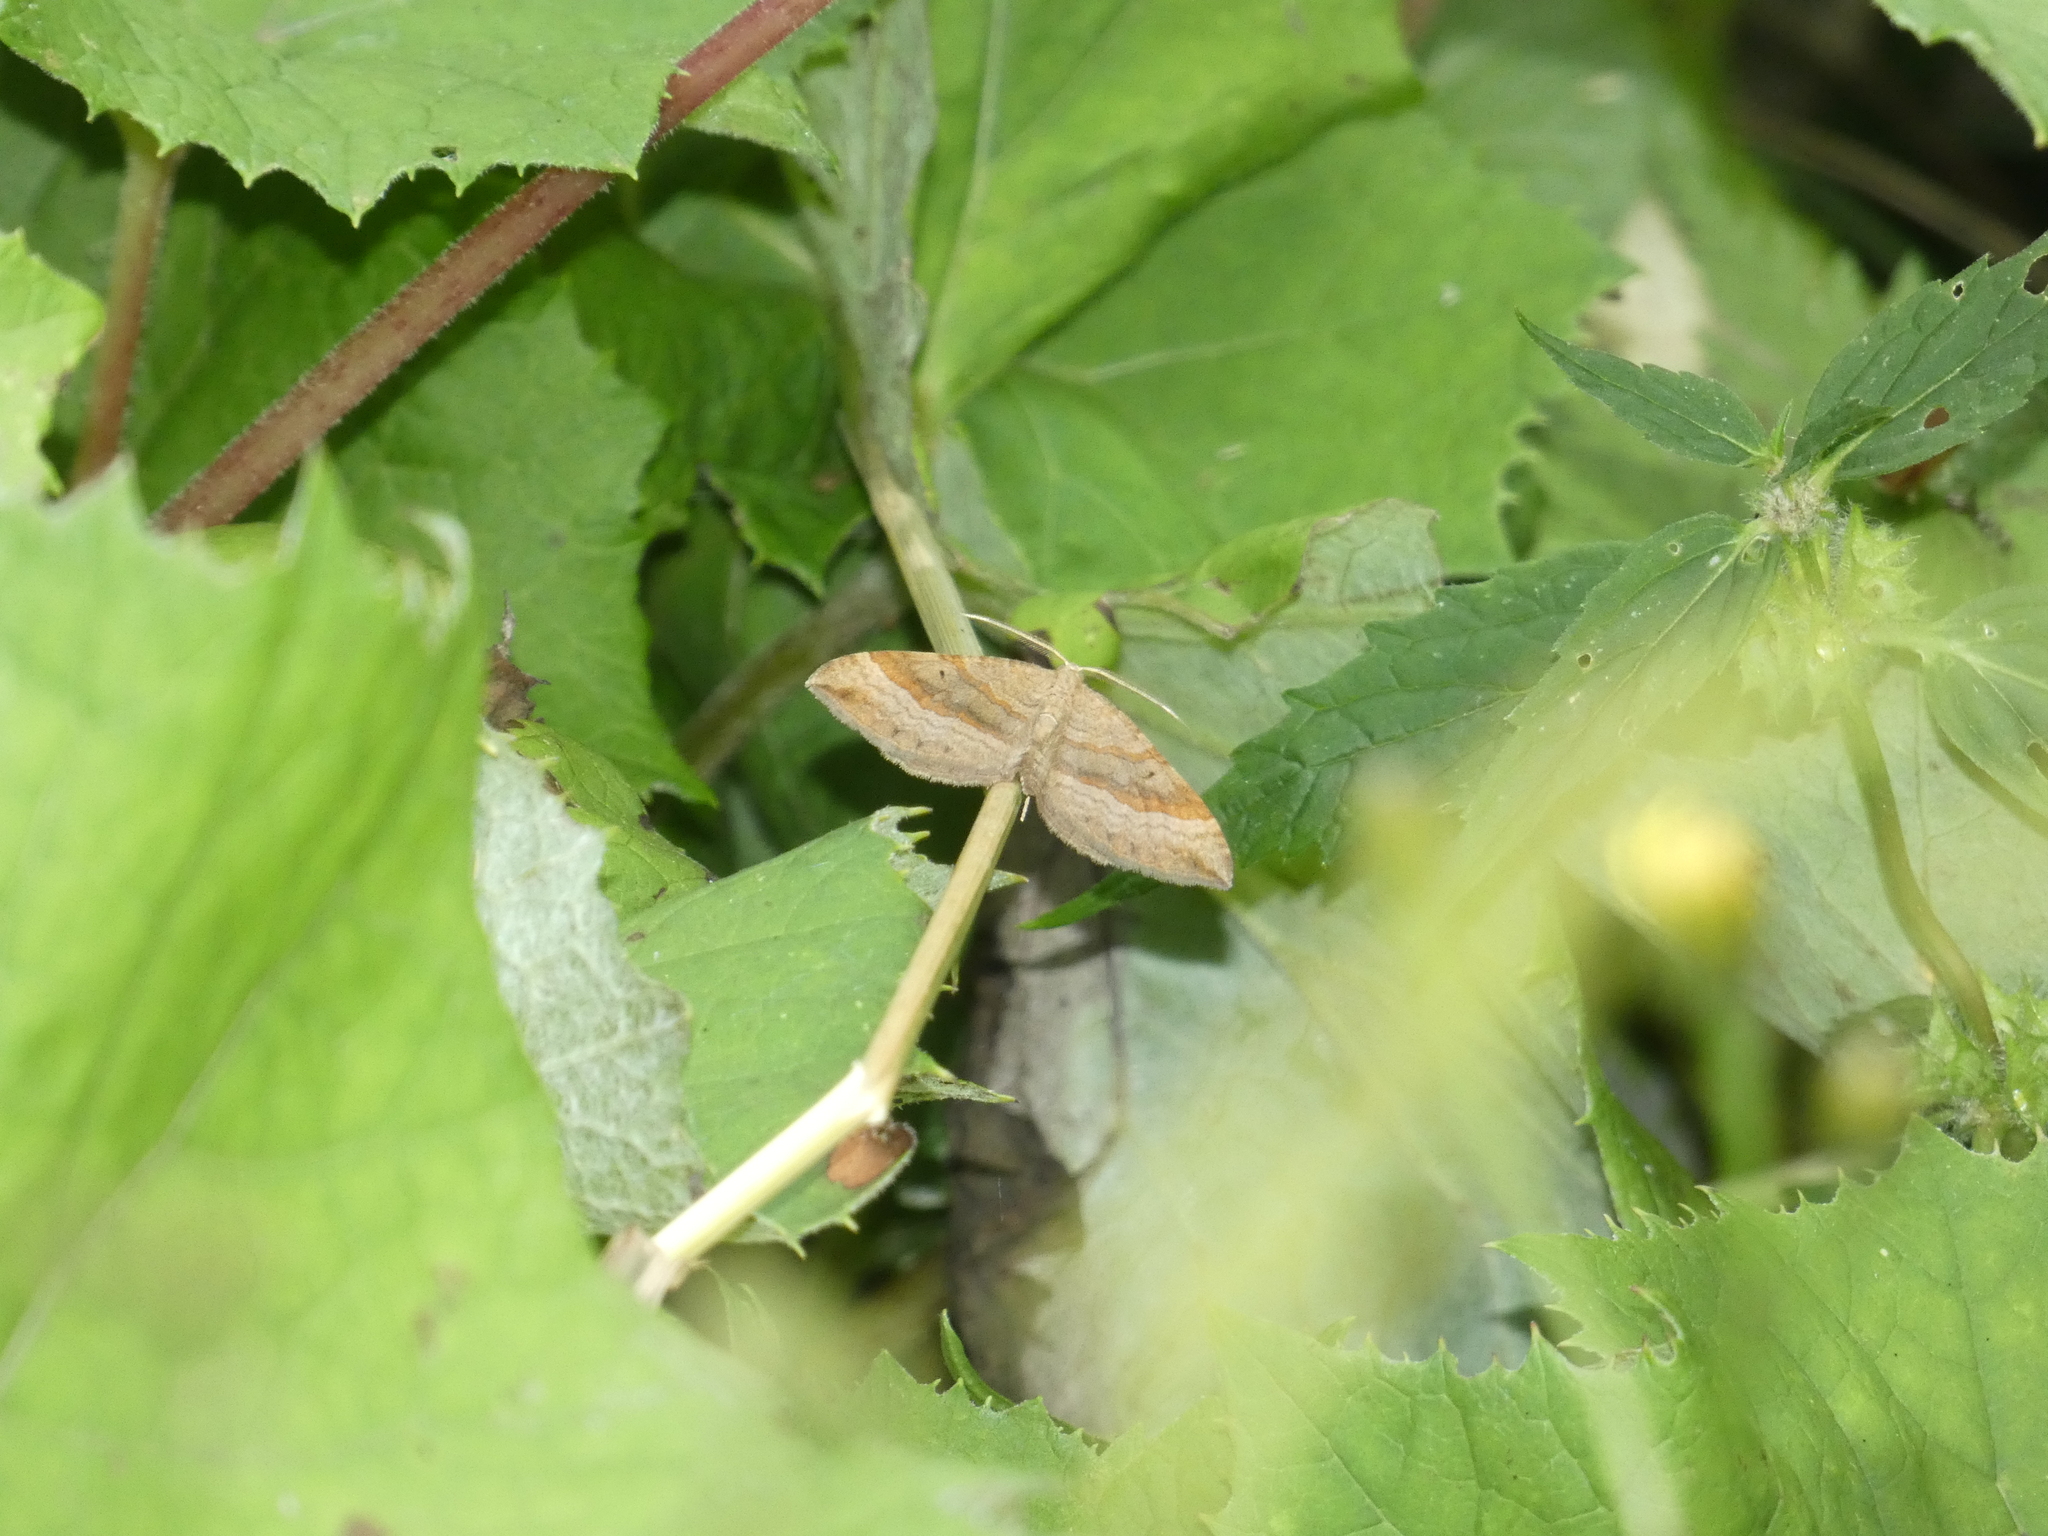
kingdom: Animalia
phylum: Arthropoda
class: Insecta
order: Lepidoptera
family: Geometridae
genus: Scotopteryx
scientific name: Scotopteryx chenopodiata
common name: Shaded broad-bar
